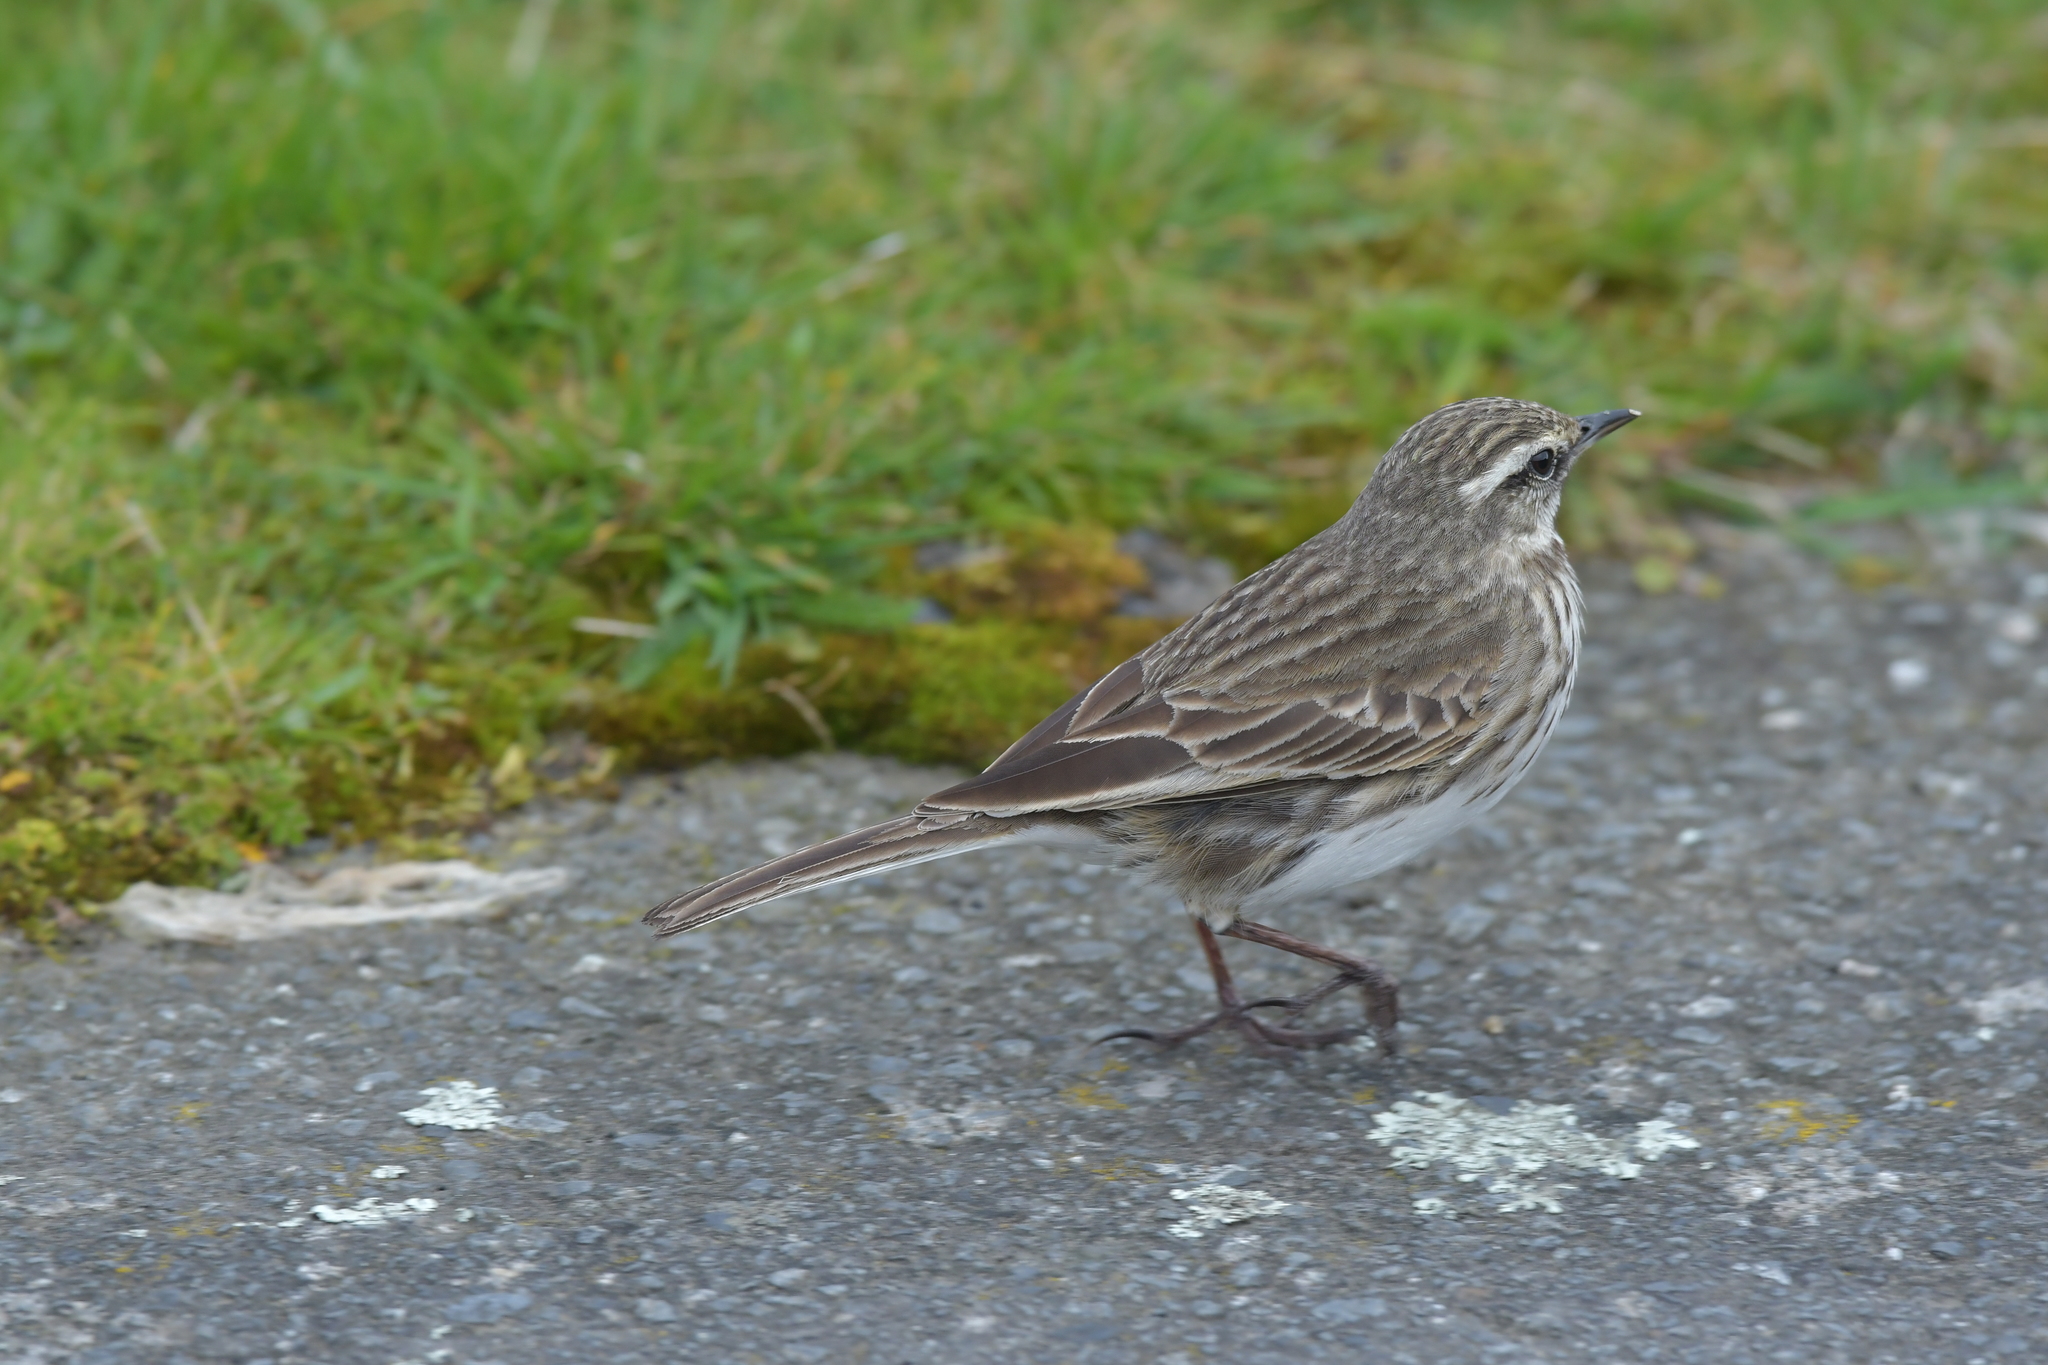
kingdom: Animalia
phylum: Chordata
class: Aves
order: Passeriformes
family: Motacillidae
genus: Anthus
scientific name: Anthus novaeseelandiae
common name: New zealand pipit
